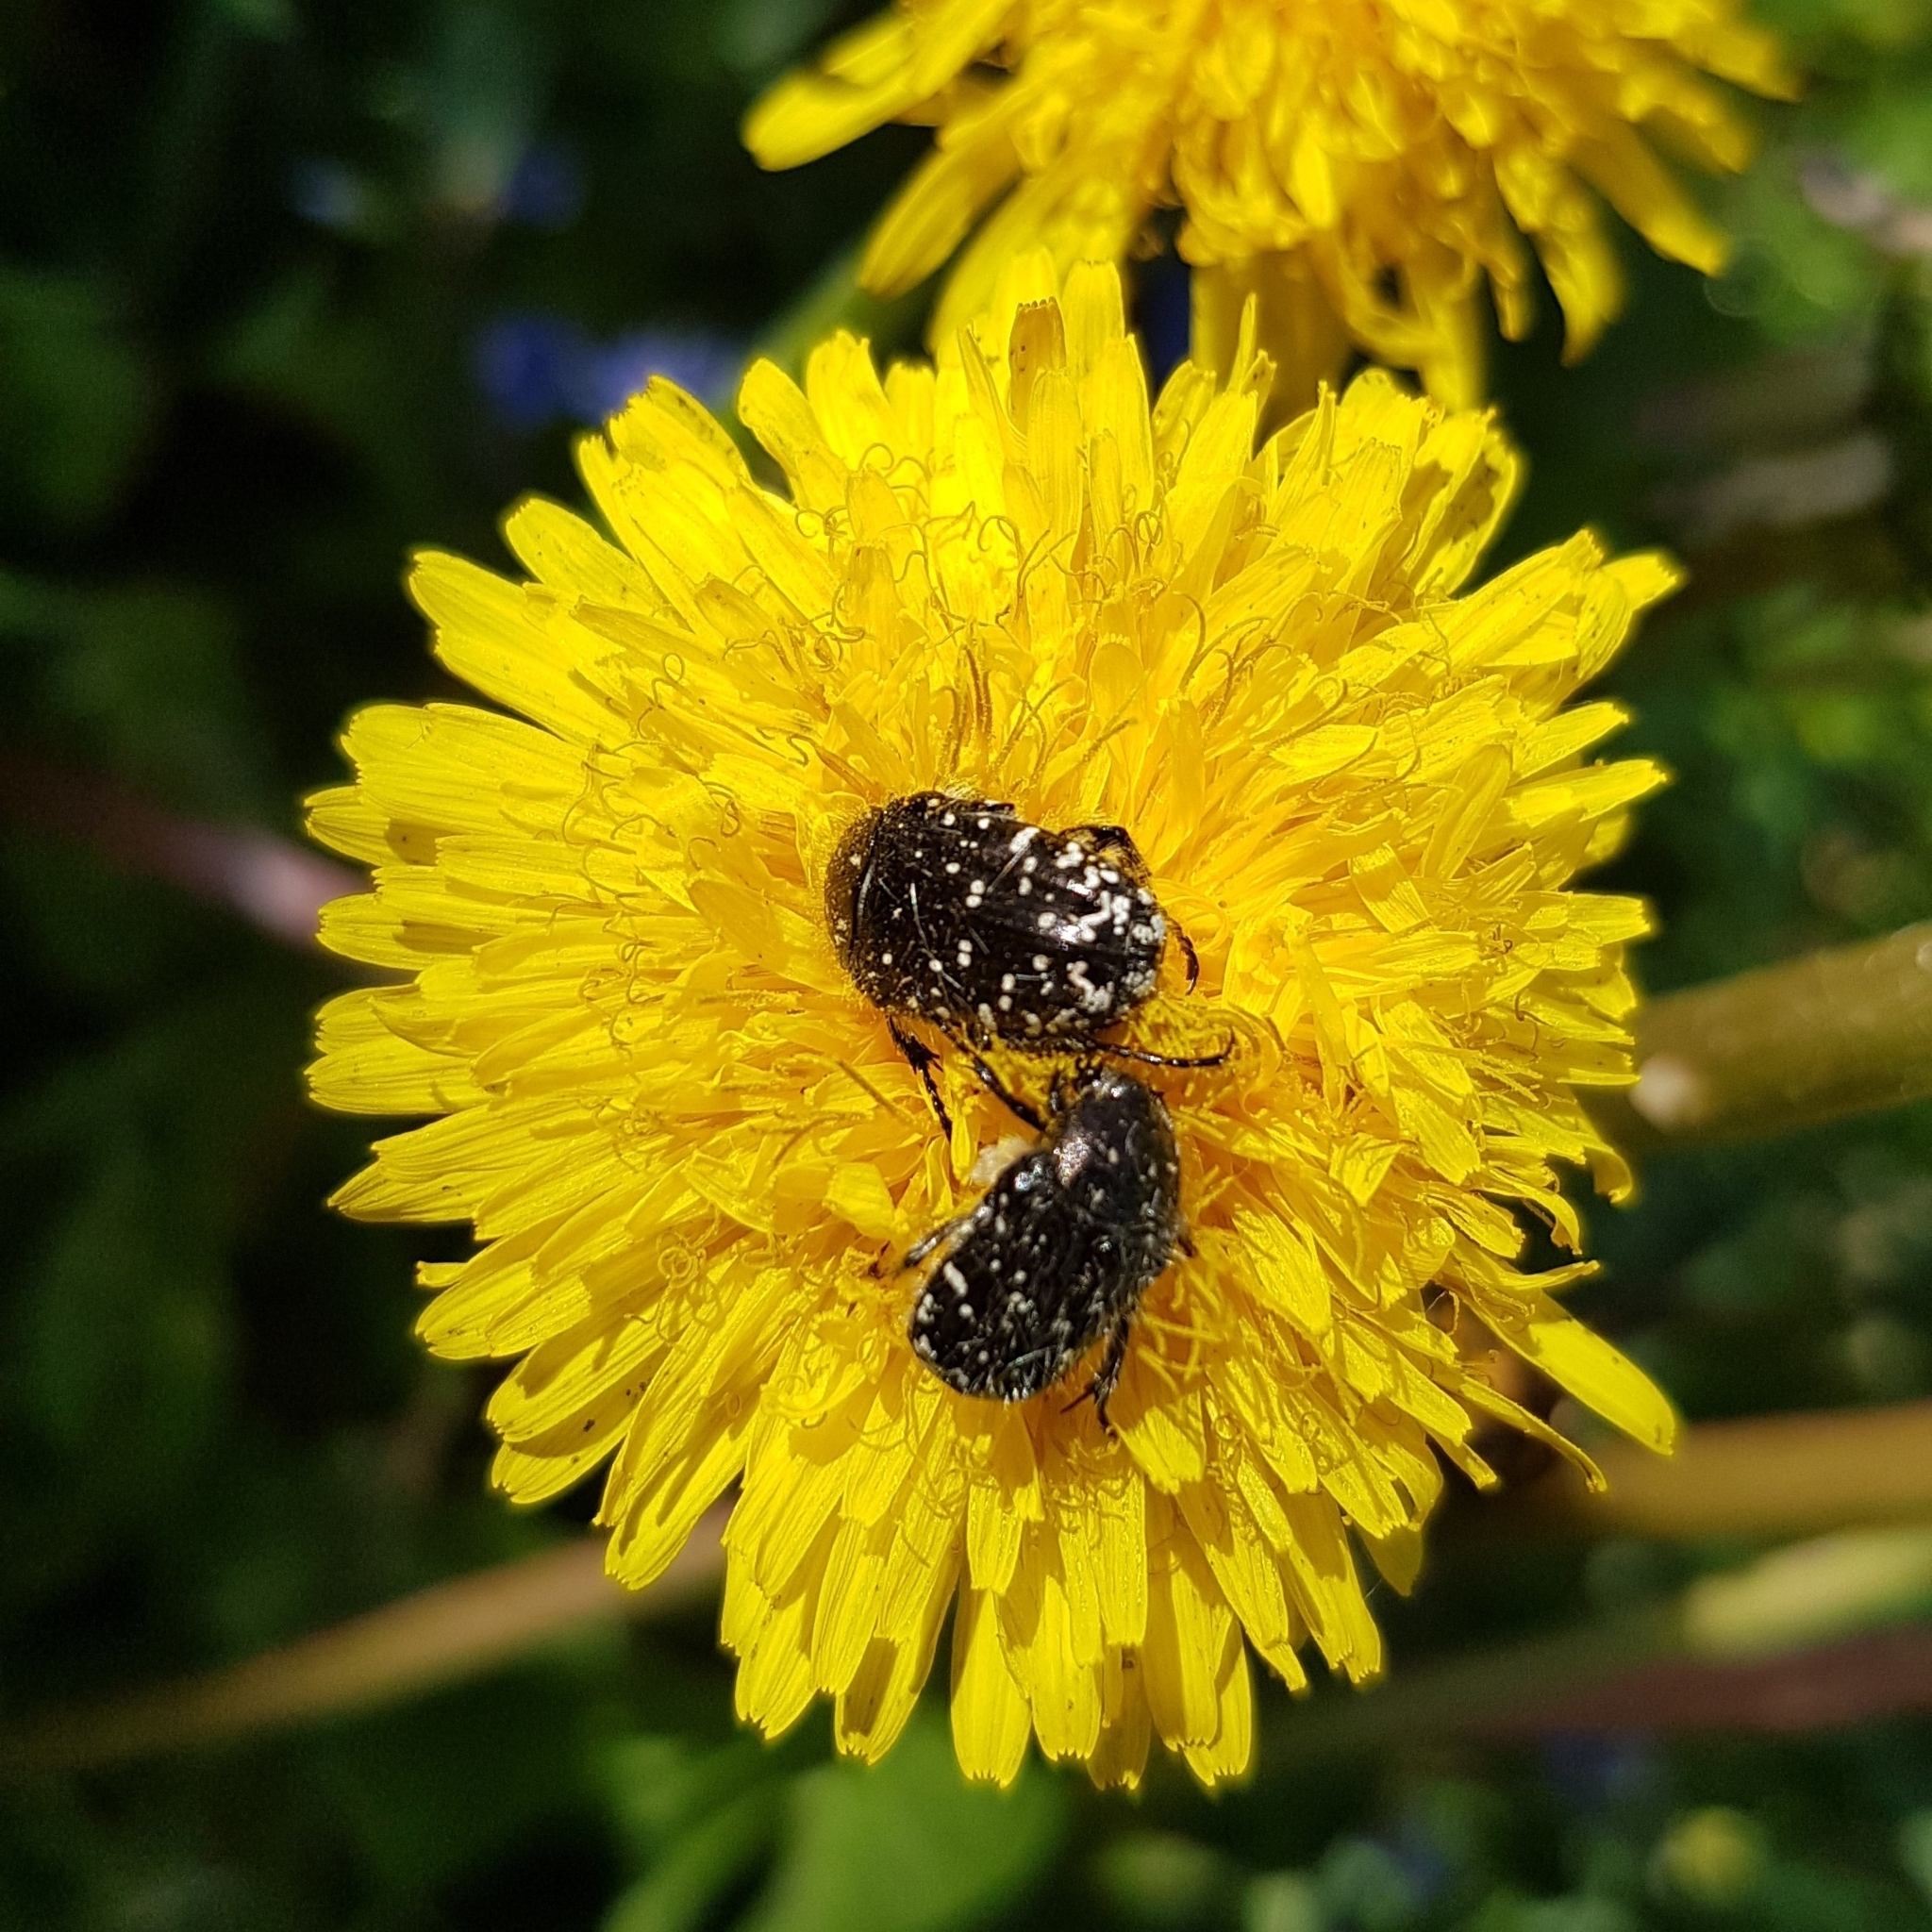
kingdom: Animalia
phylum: Arthropoda
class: Insecta
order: Coleoptera
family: Scarabaeidae
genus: Oxythyrea
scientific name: Oxythyrea funesta
